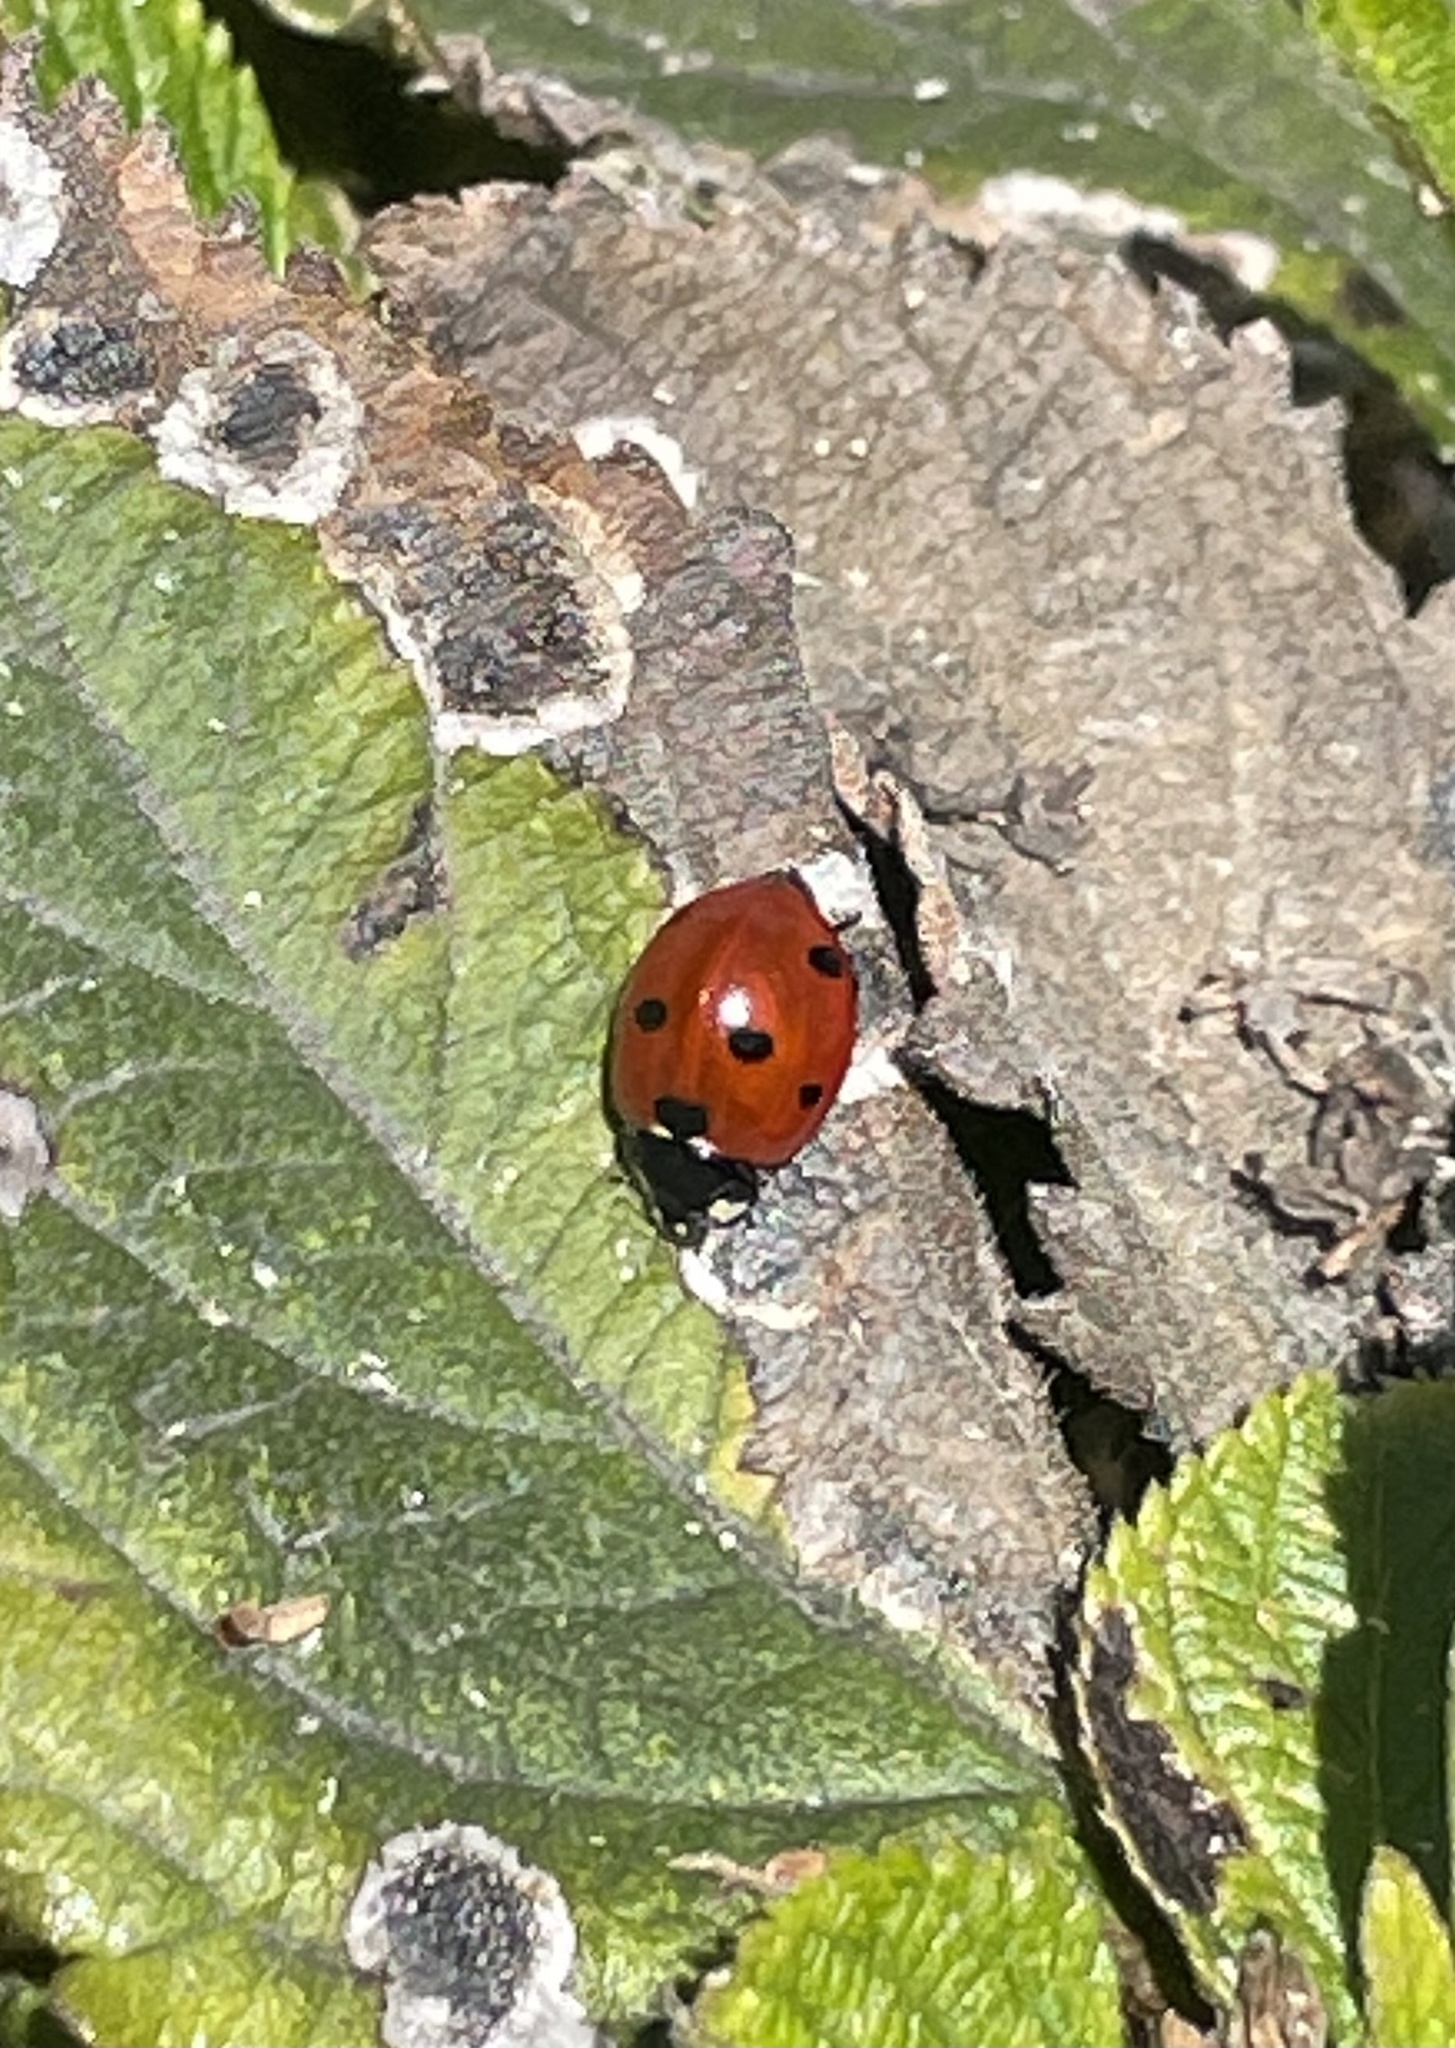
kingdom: Animalia
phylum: Arthropoda
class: Insecta
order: Coleoptera
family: Coccinellidae
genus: Coccinella
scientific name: Coccinella septempunctata
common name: Sevenspotted lady beetle
